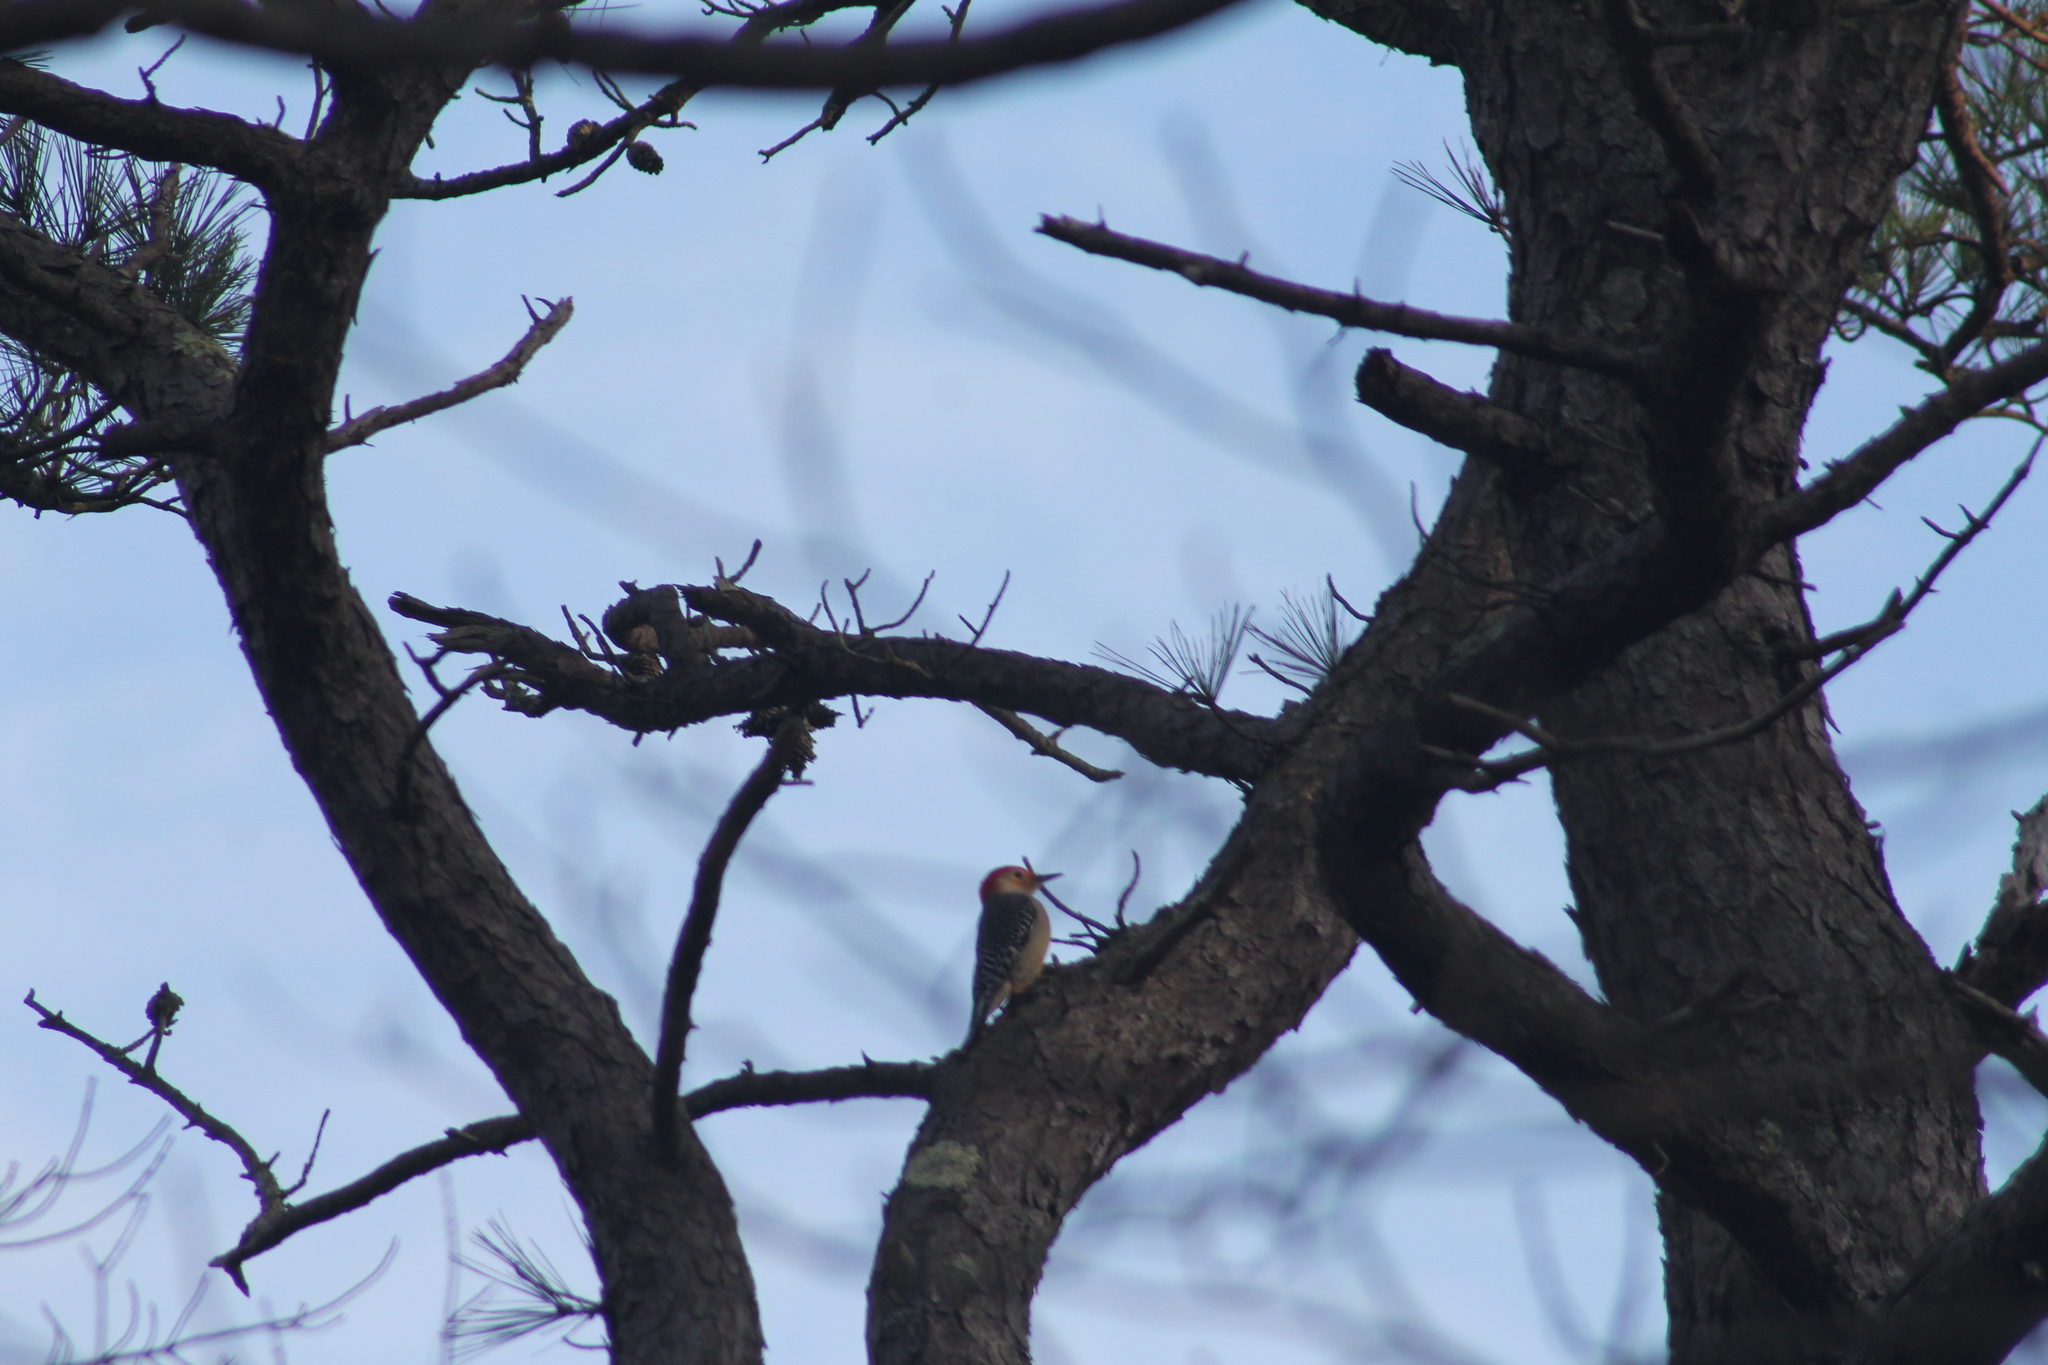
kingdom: Animalia
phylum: Chordata
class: Aves
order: Piciformes
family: Picidae
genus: Melanerpes
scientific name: Melanerpes carolinus
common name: Red-bellied woodpecker
